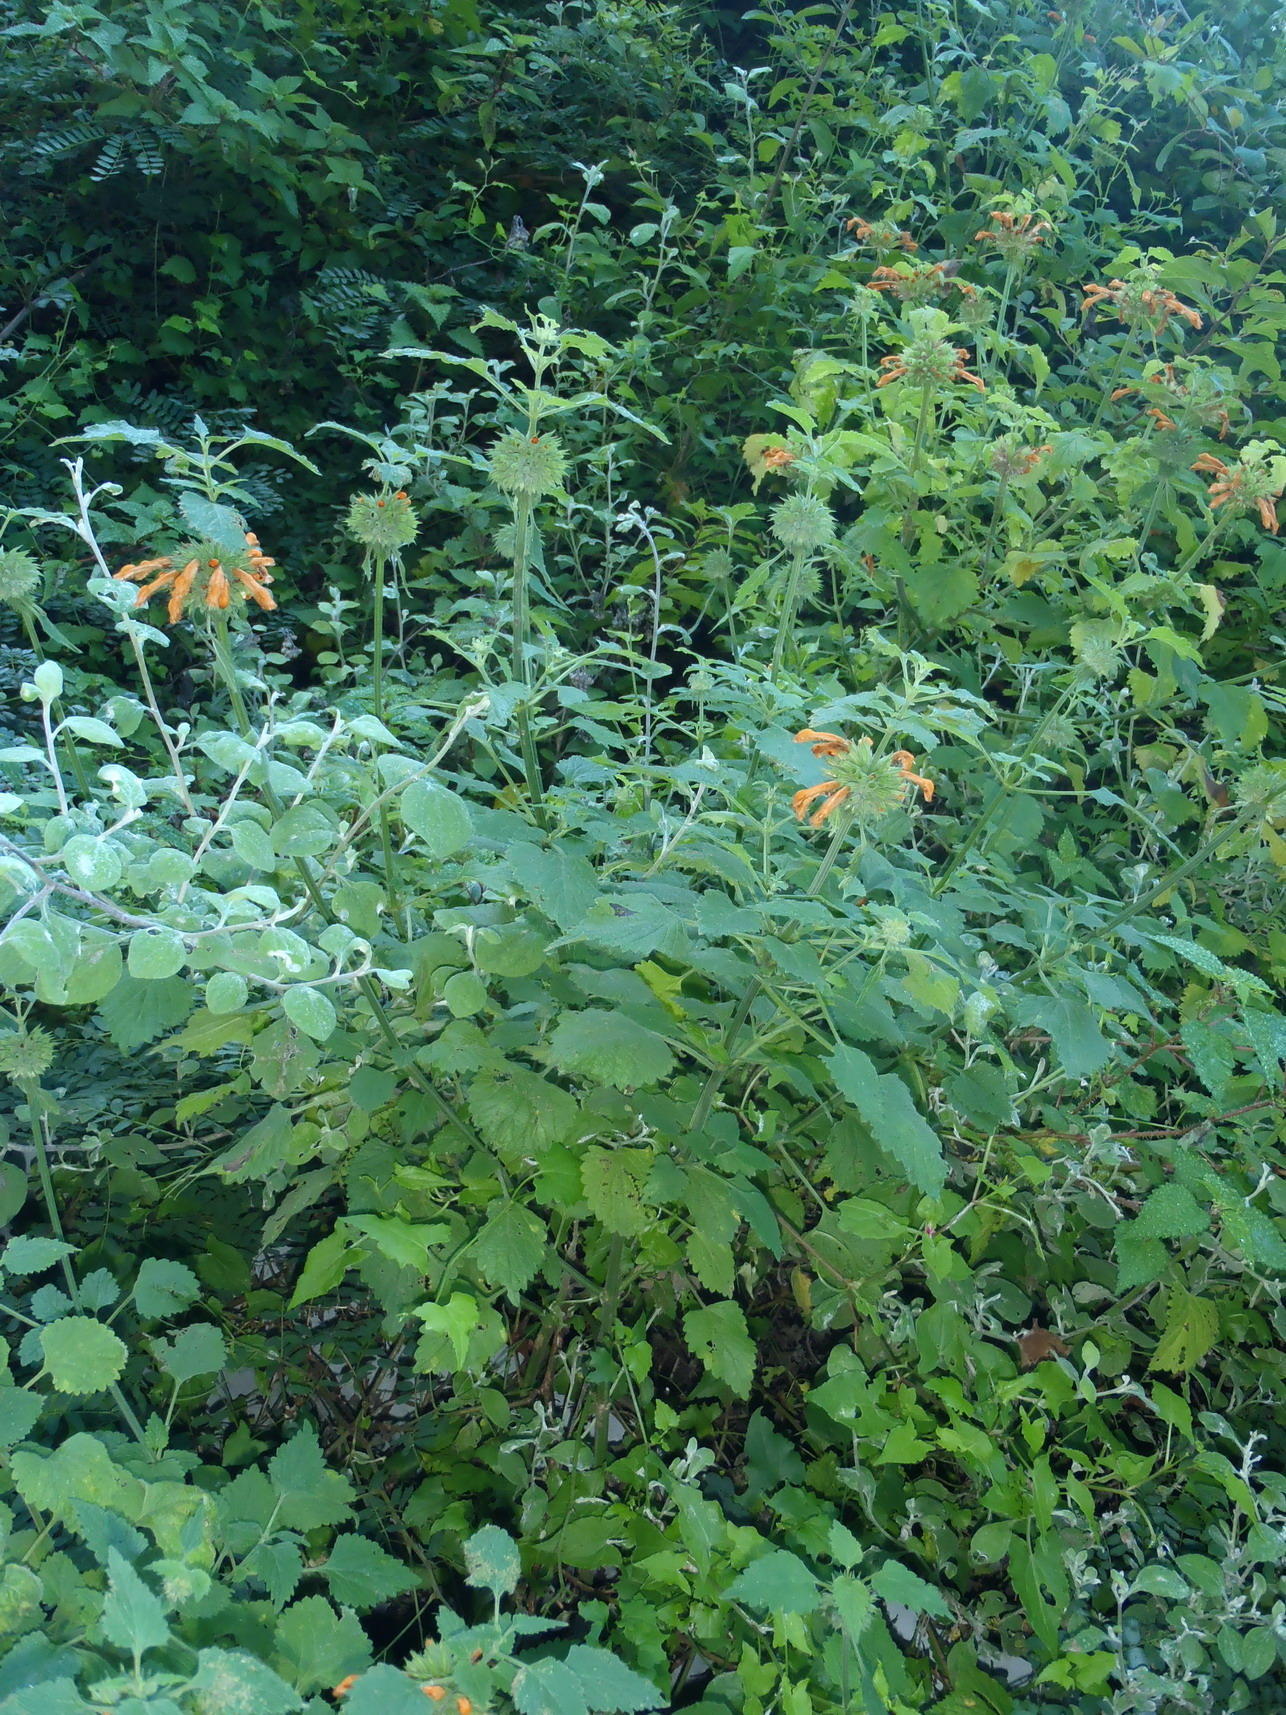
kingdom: Plantae
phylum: Tracheophyta
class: Magnoliopsida
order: Lamiales
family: Lamiaceae
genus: Leonotis
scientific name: Leonotis ocymifolia
